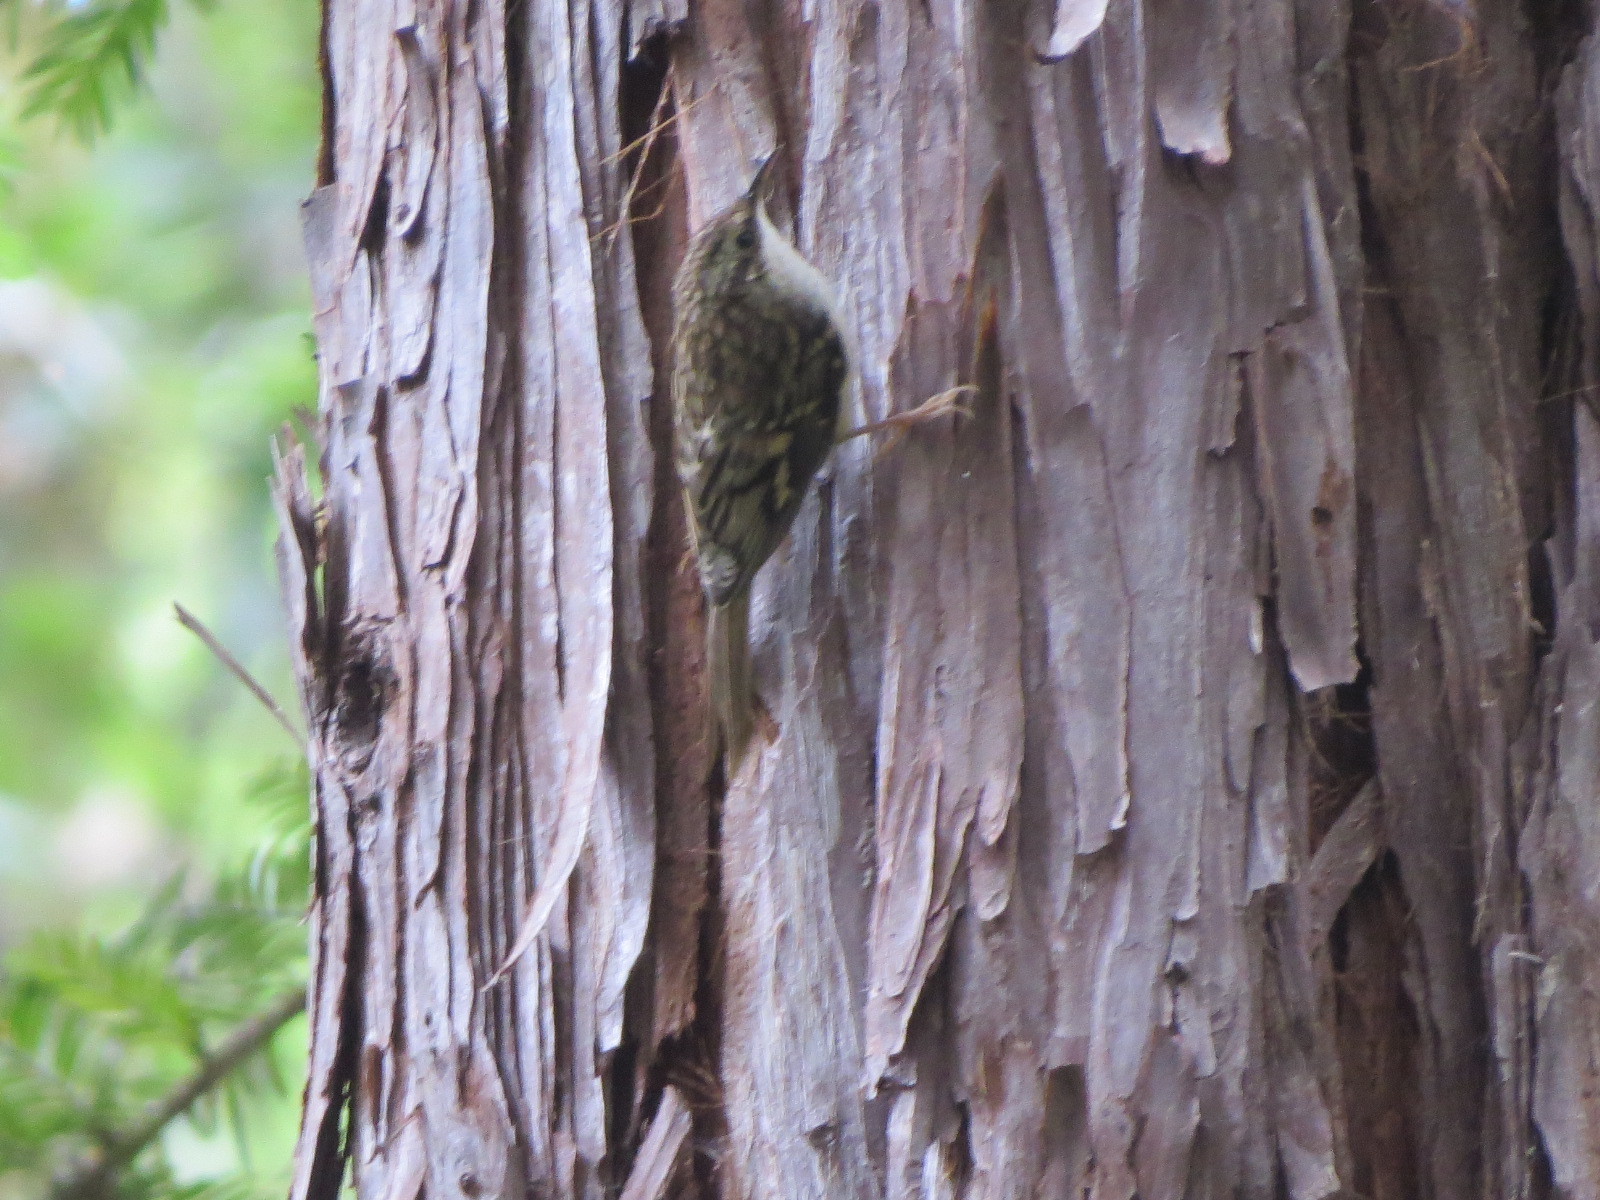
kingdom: Animalia
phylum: Chordata
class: Aves
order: Passeriformes
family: Certhiidae
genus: Certhia
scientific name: Certhia americana
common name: Brown creeper
